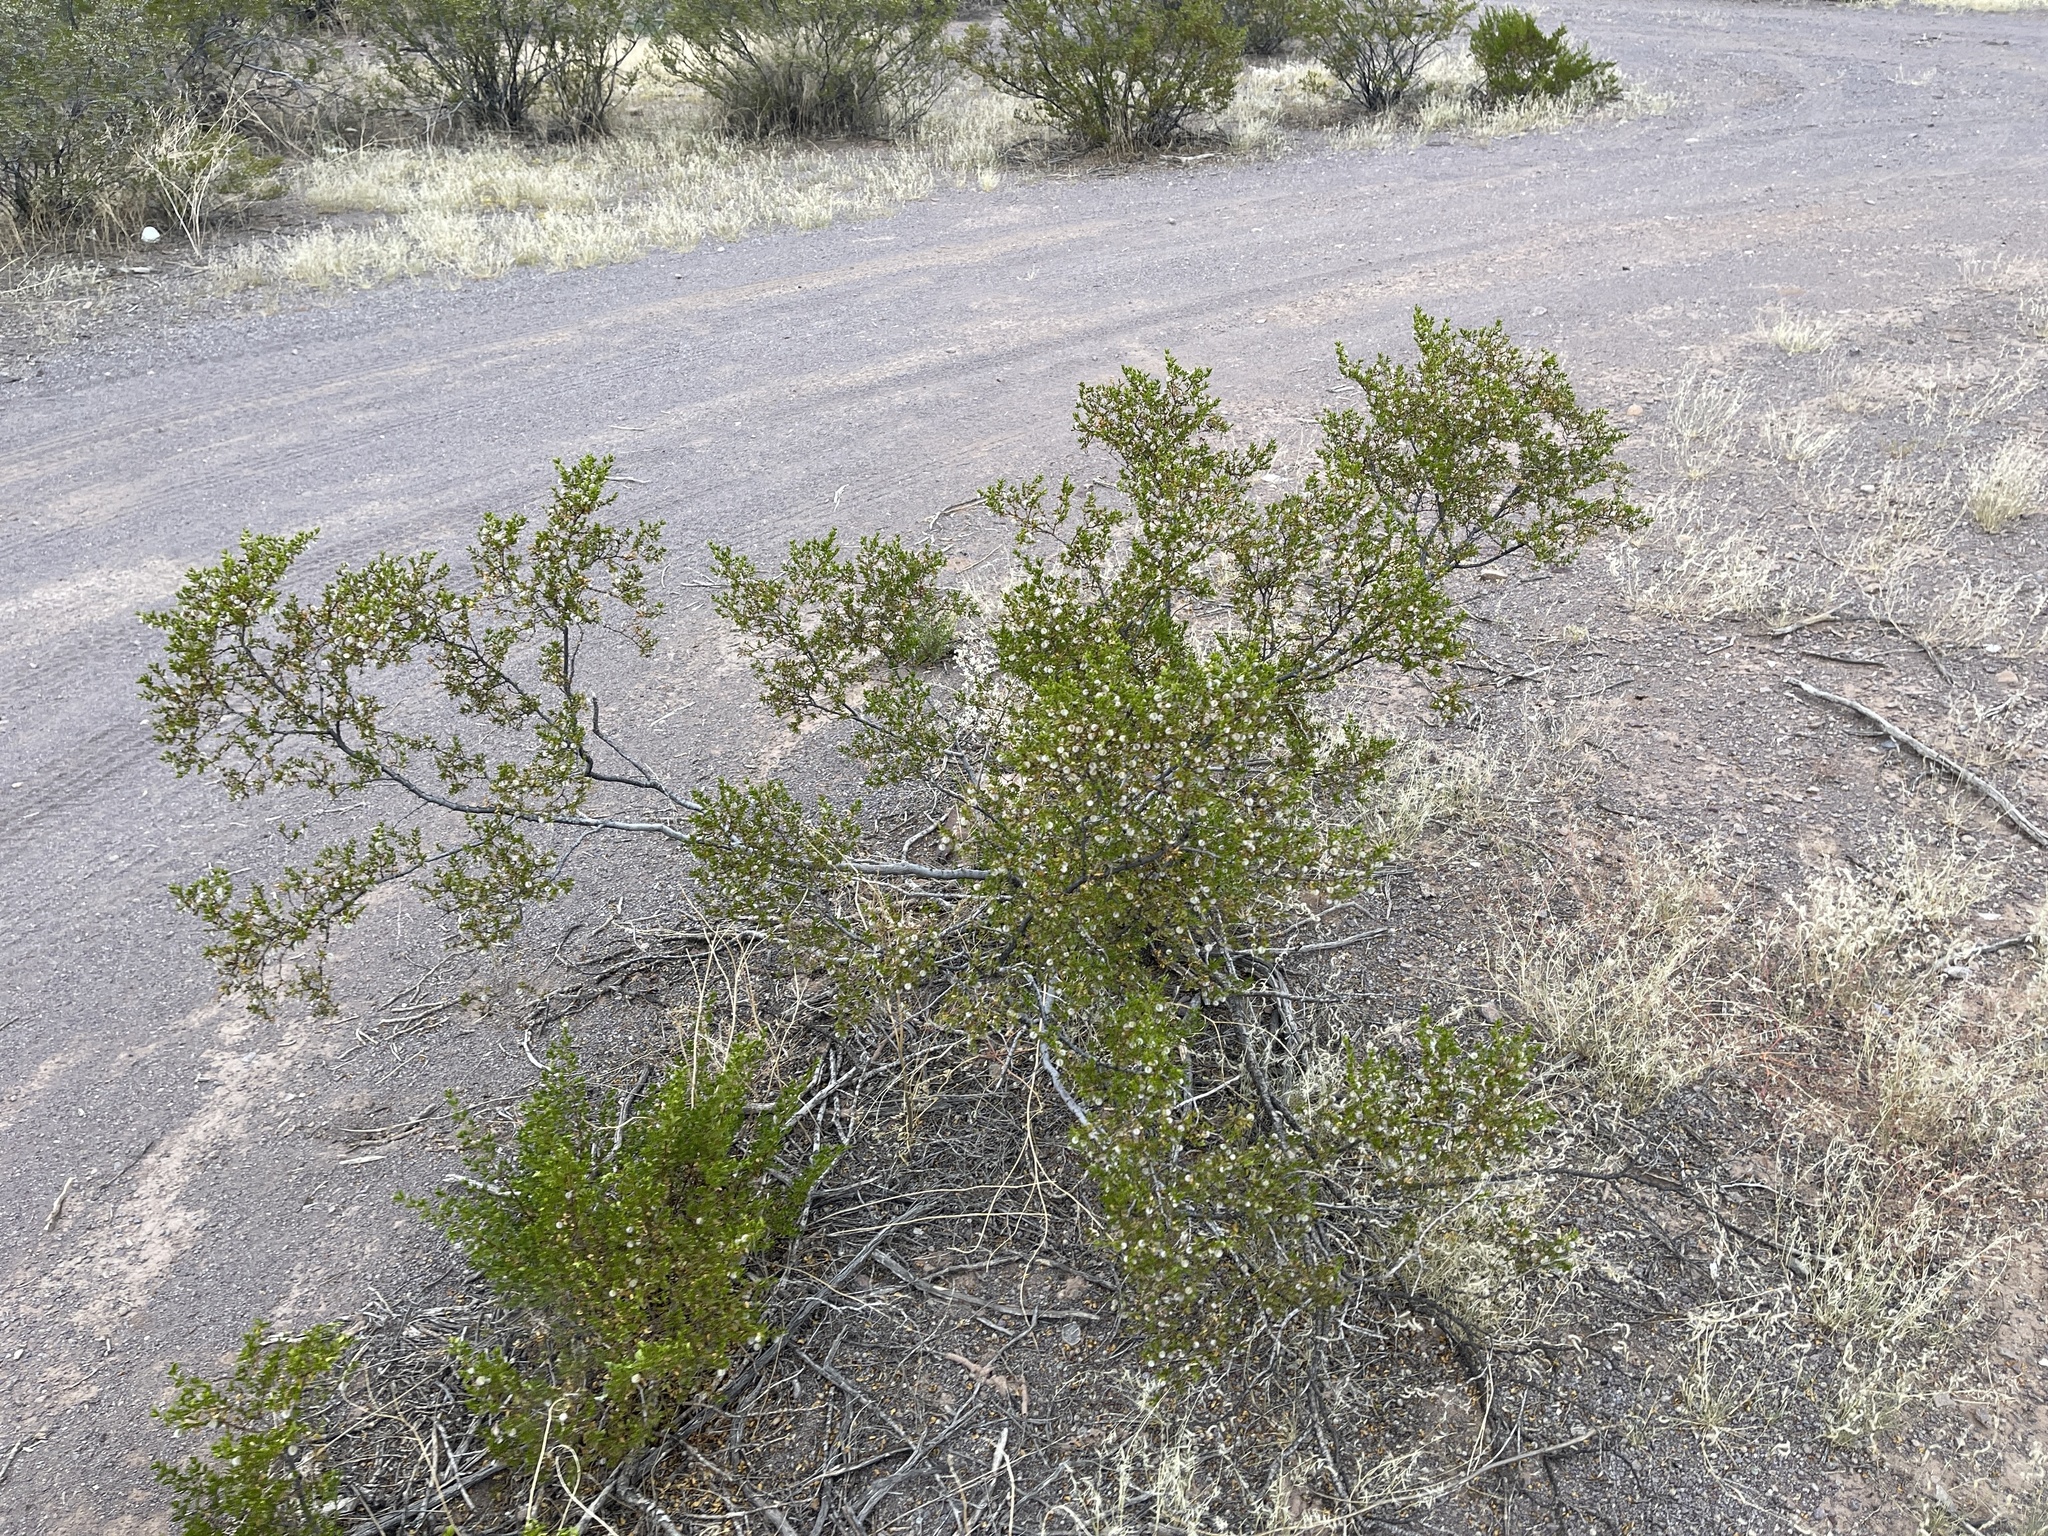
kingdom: Plantae
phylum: Tracheophyta
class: Magnoliopsida
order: Zygophyllales
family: Zygophyllaceae
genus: Larrea
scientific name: Larrea tridentata
